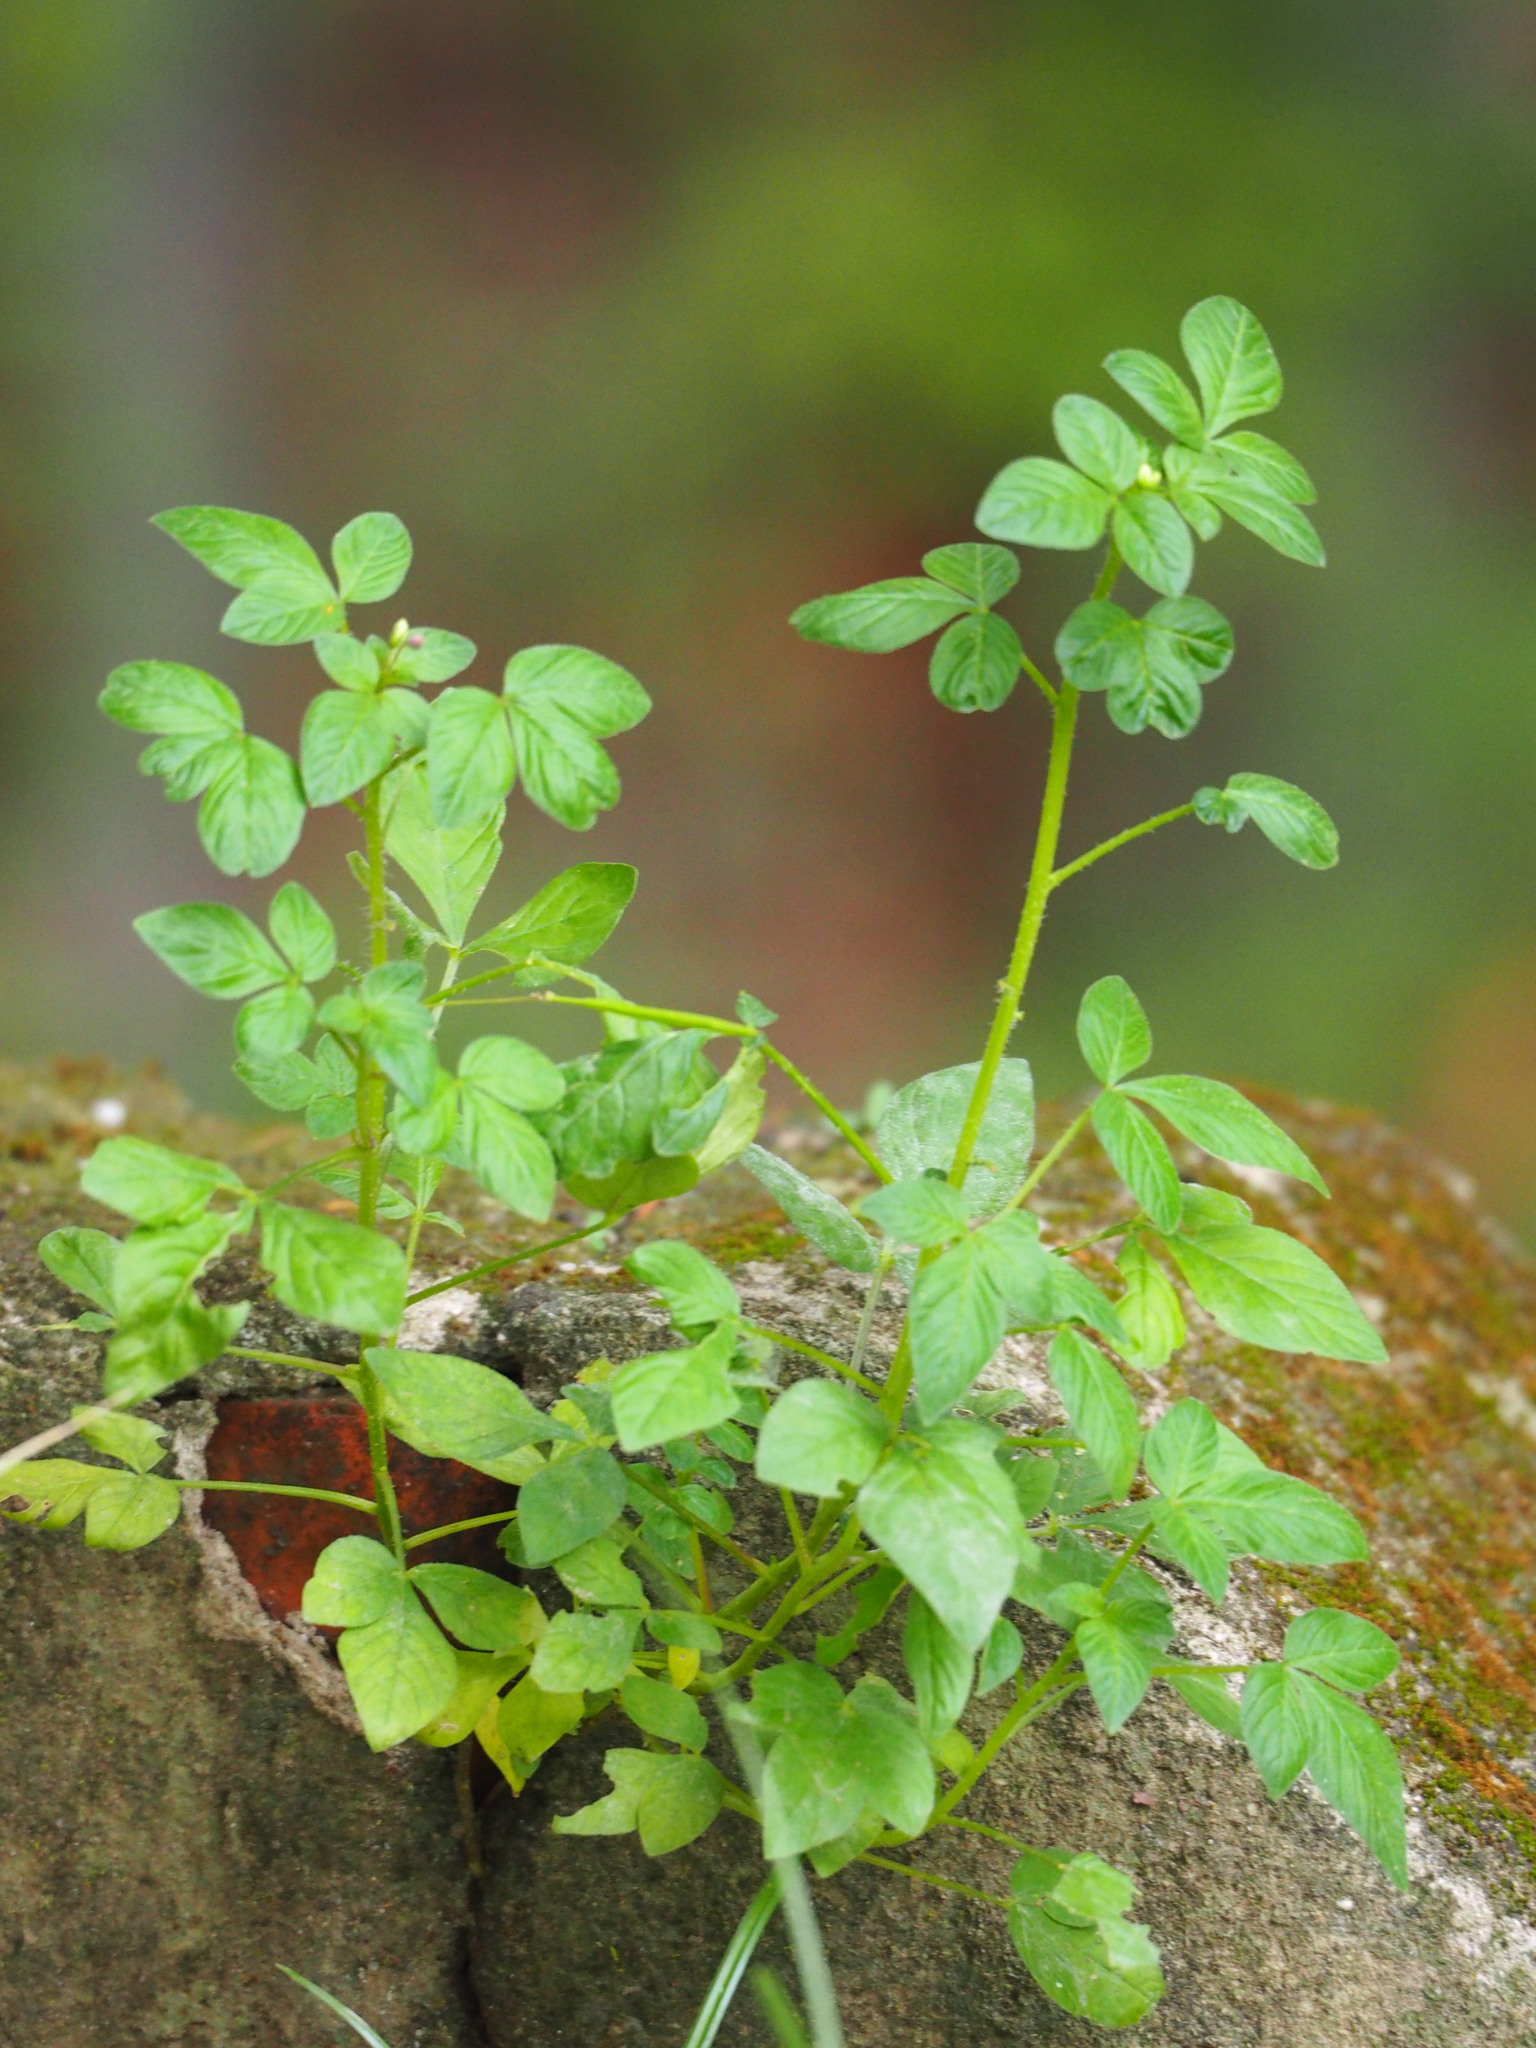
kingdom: Plantae
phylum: Tracheophyta
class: Magnoliopsida
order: Brassicales
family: Cleomaceae
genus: Sieruela
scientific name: Sieruela rutidosperma
